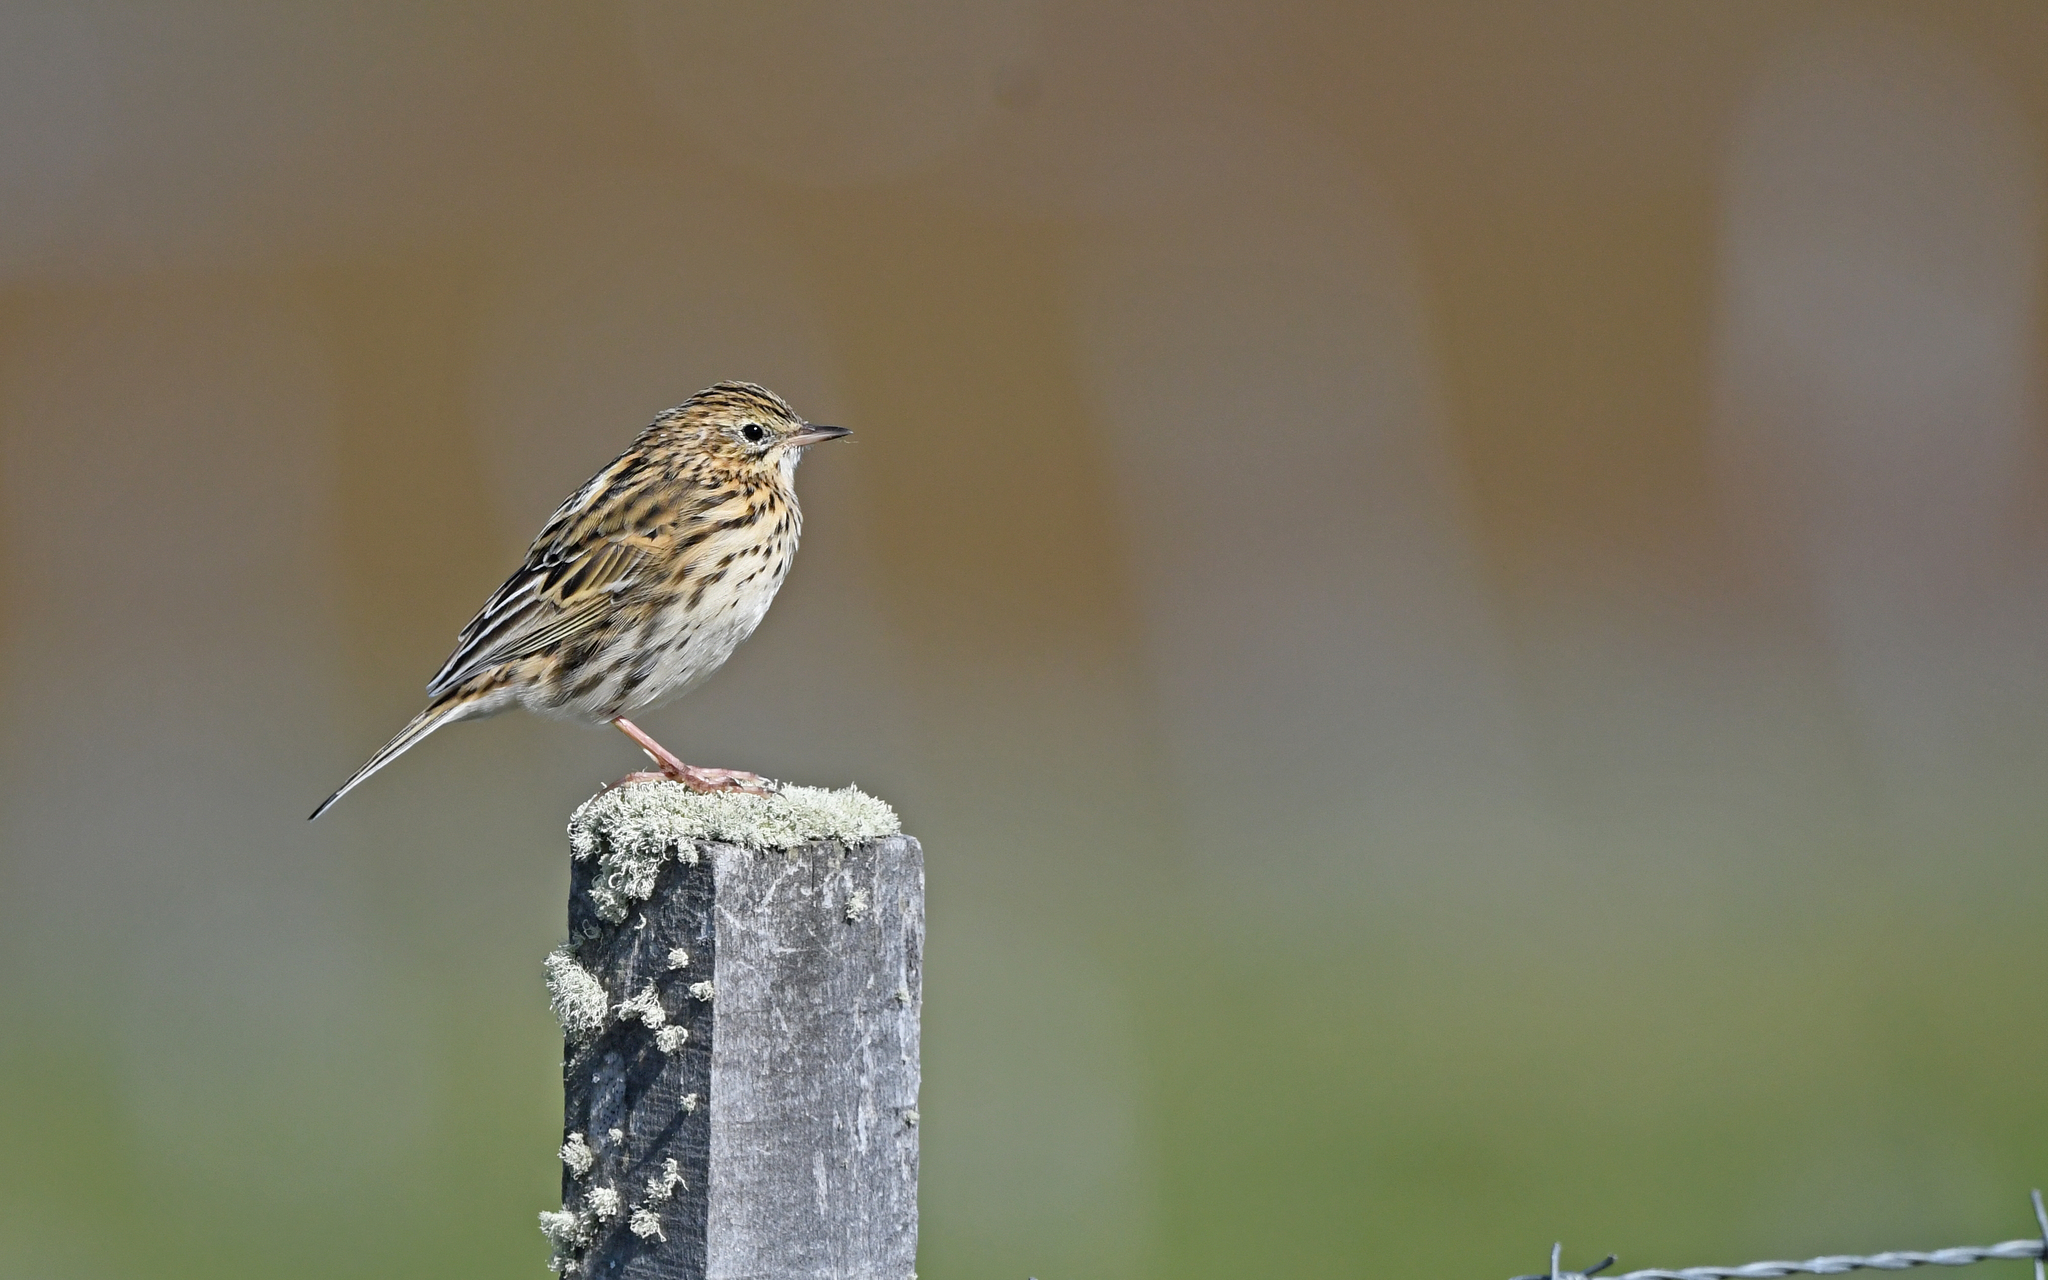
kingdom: Animalia
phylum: Chordata
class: Aves
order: Passeriformes
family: Motacillidae
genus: Anthus
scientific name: Anthus correndera
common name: Correndera pipit
